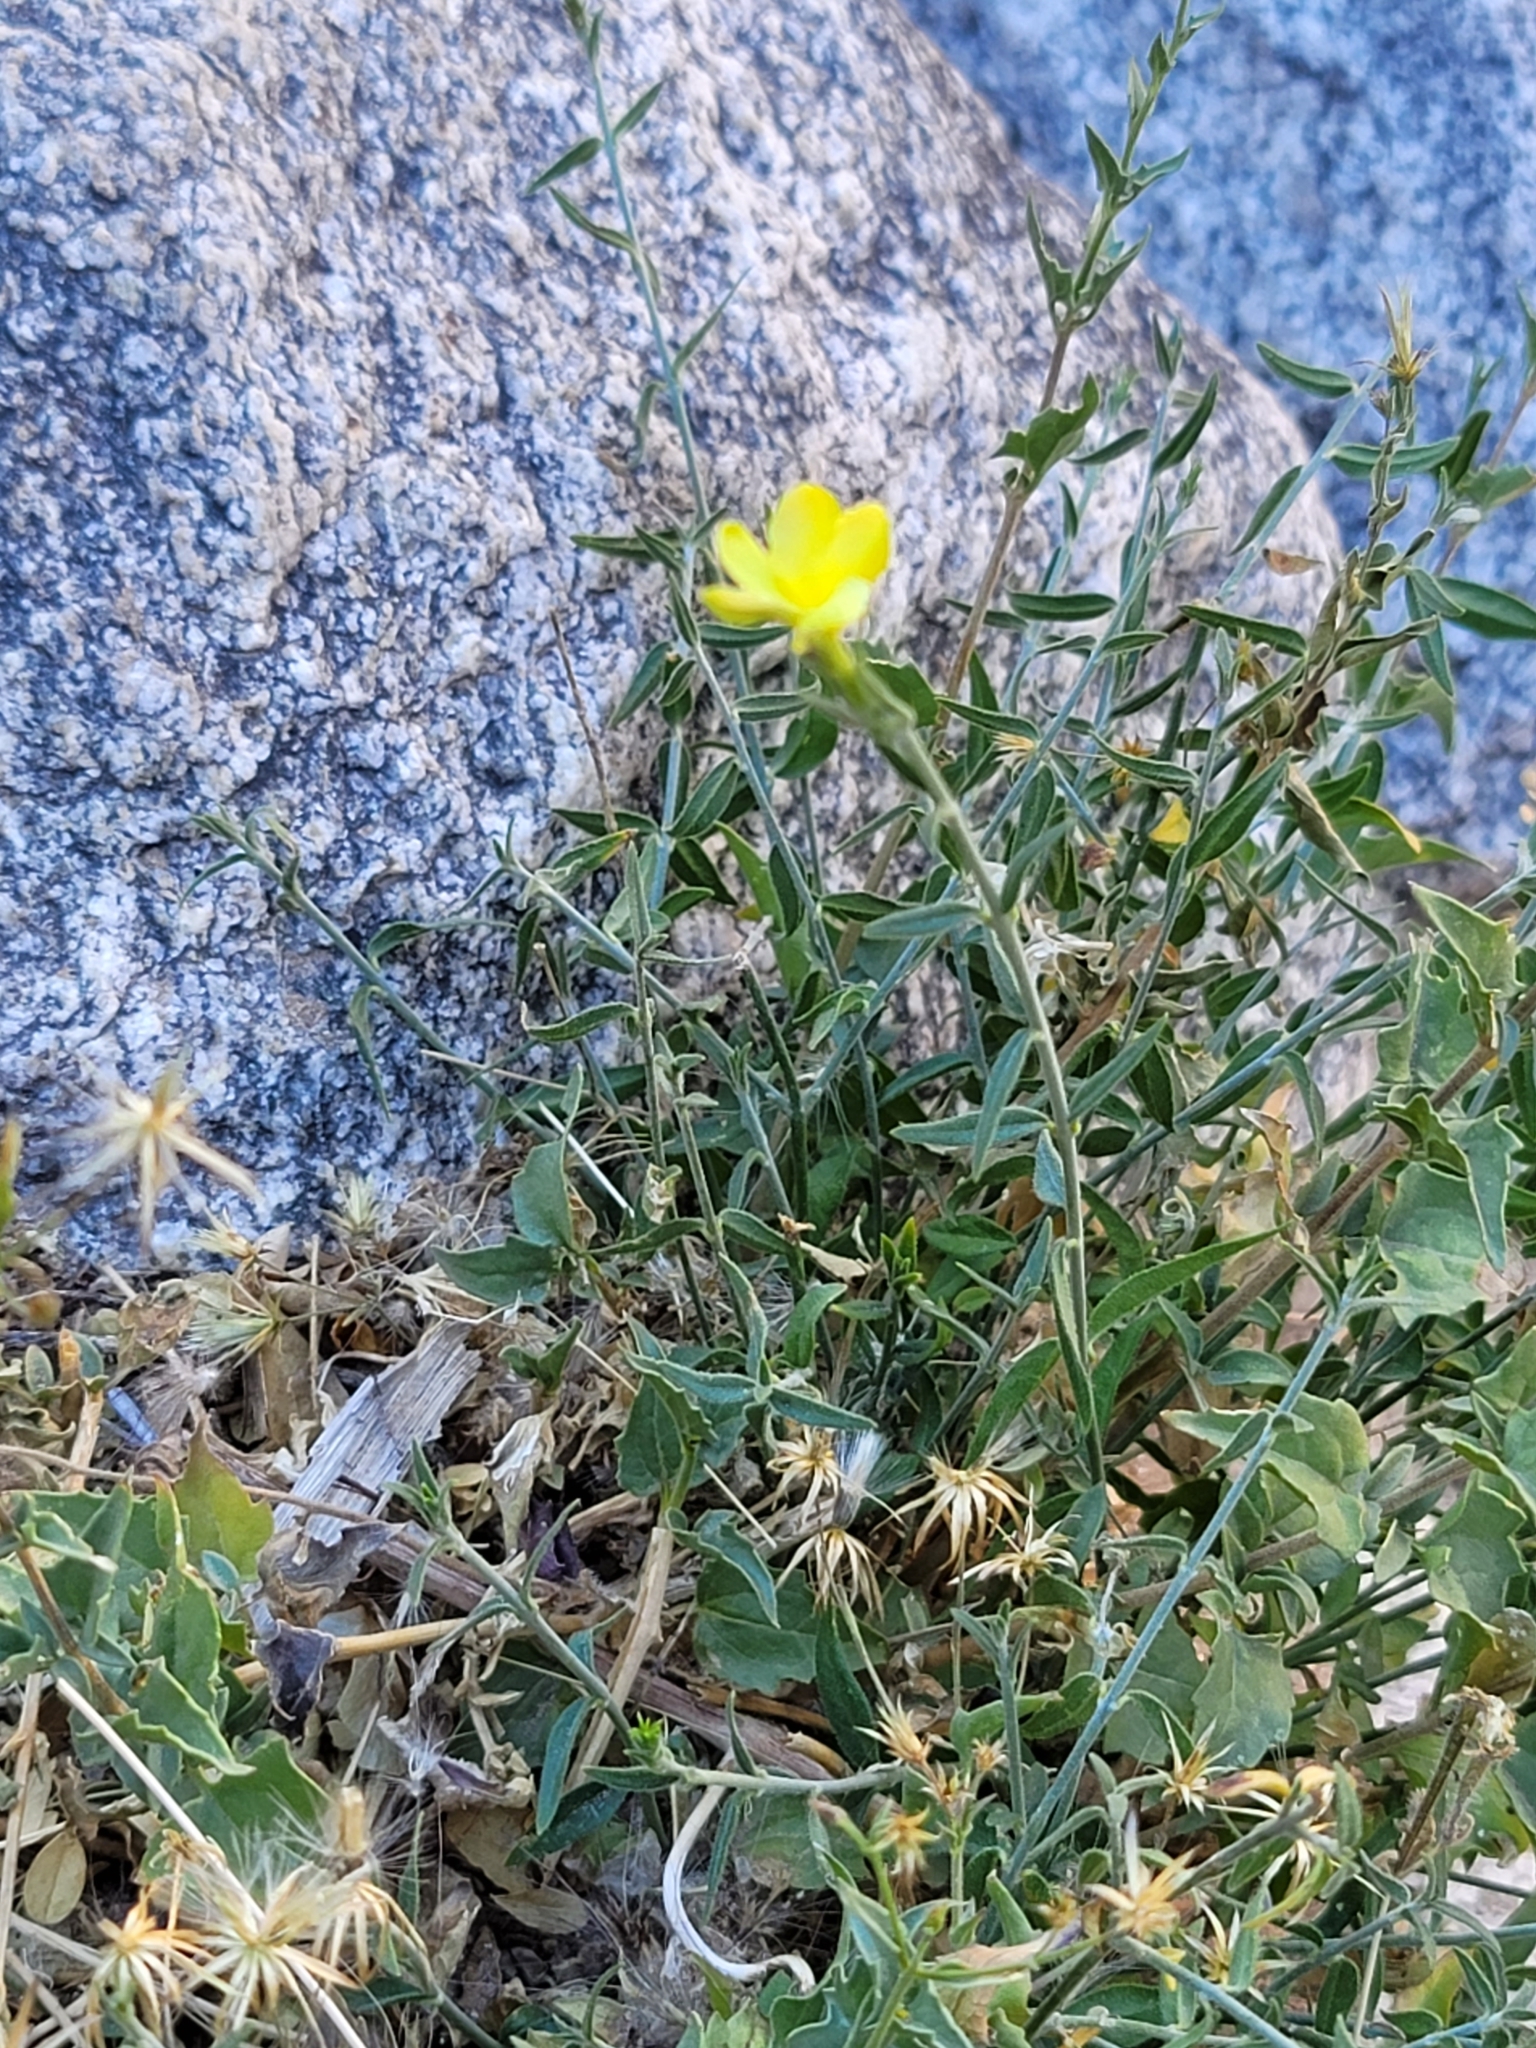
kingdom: Plantae
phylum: Tracheophyta
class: Magnoliopsida
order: Gentianales
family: Apocynaceae
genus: Haplophyton
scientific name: Haplophyton crooksii
